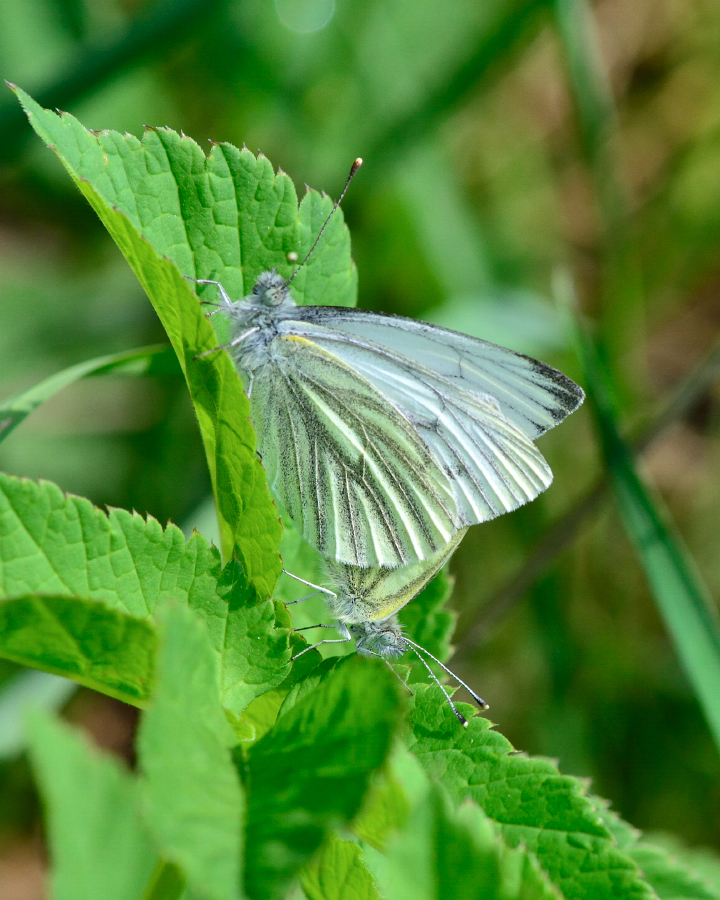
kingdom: Animalia
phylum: Arthropoda
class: Insecta
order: Lepidoptera
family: Pieridae
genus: Pieris
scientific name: Pieris napi
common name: Green-veined white
